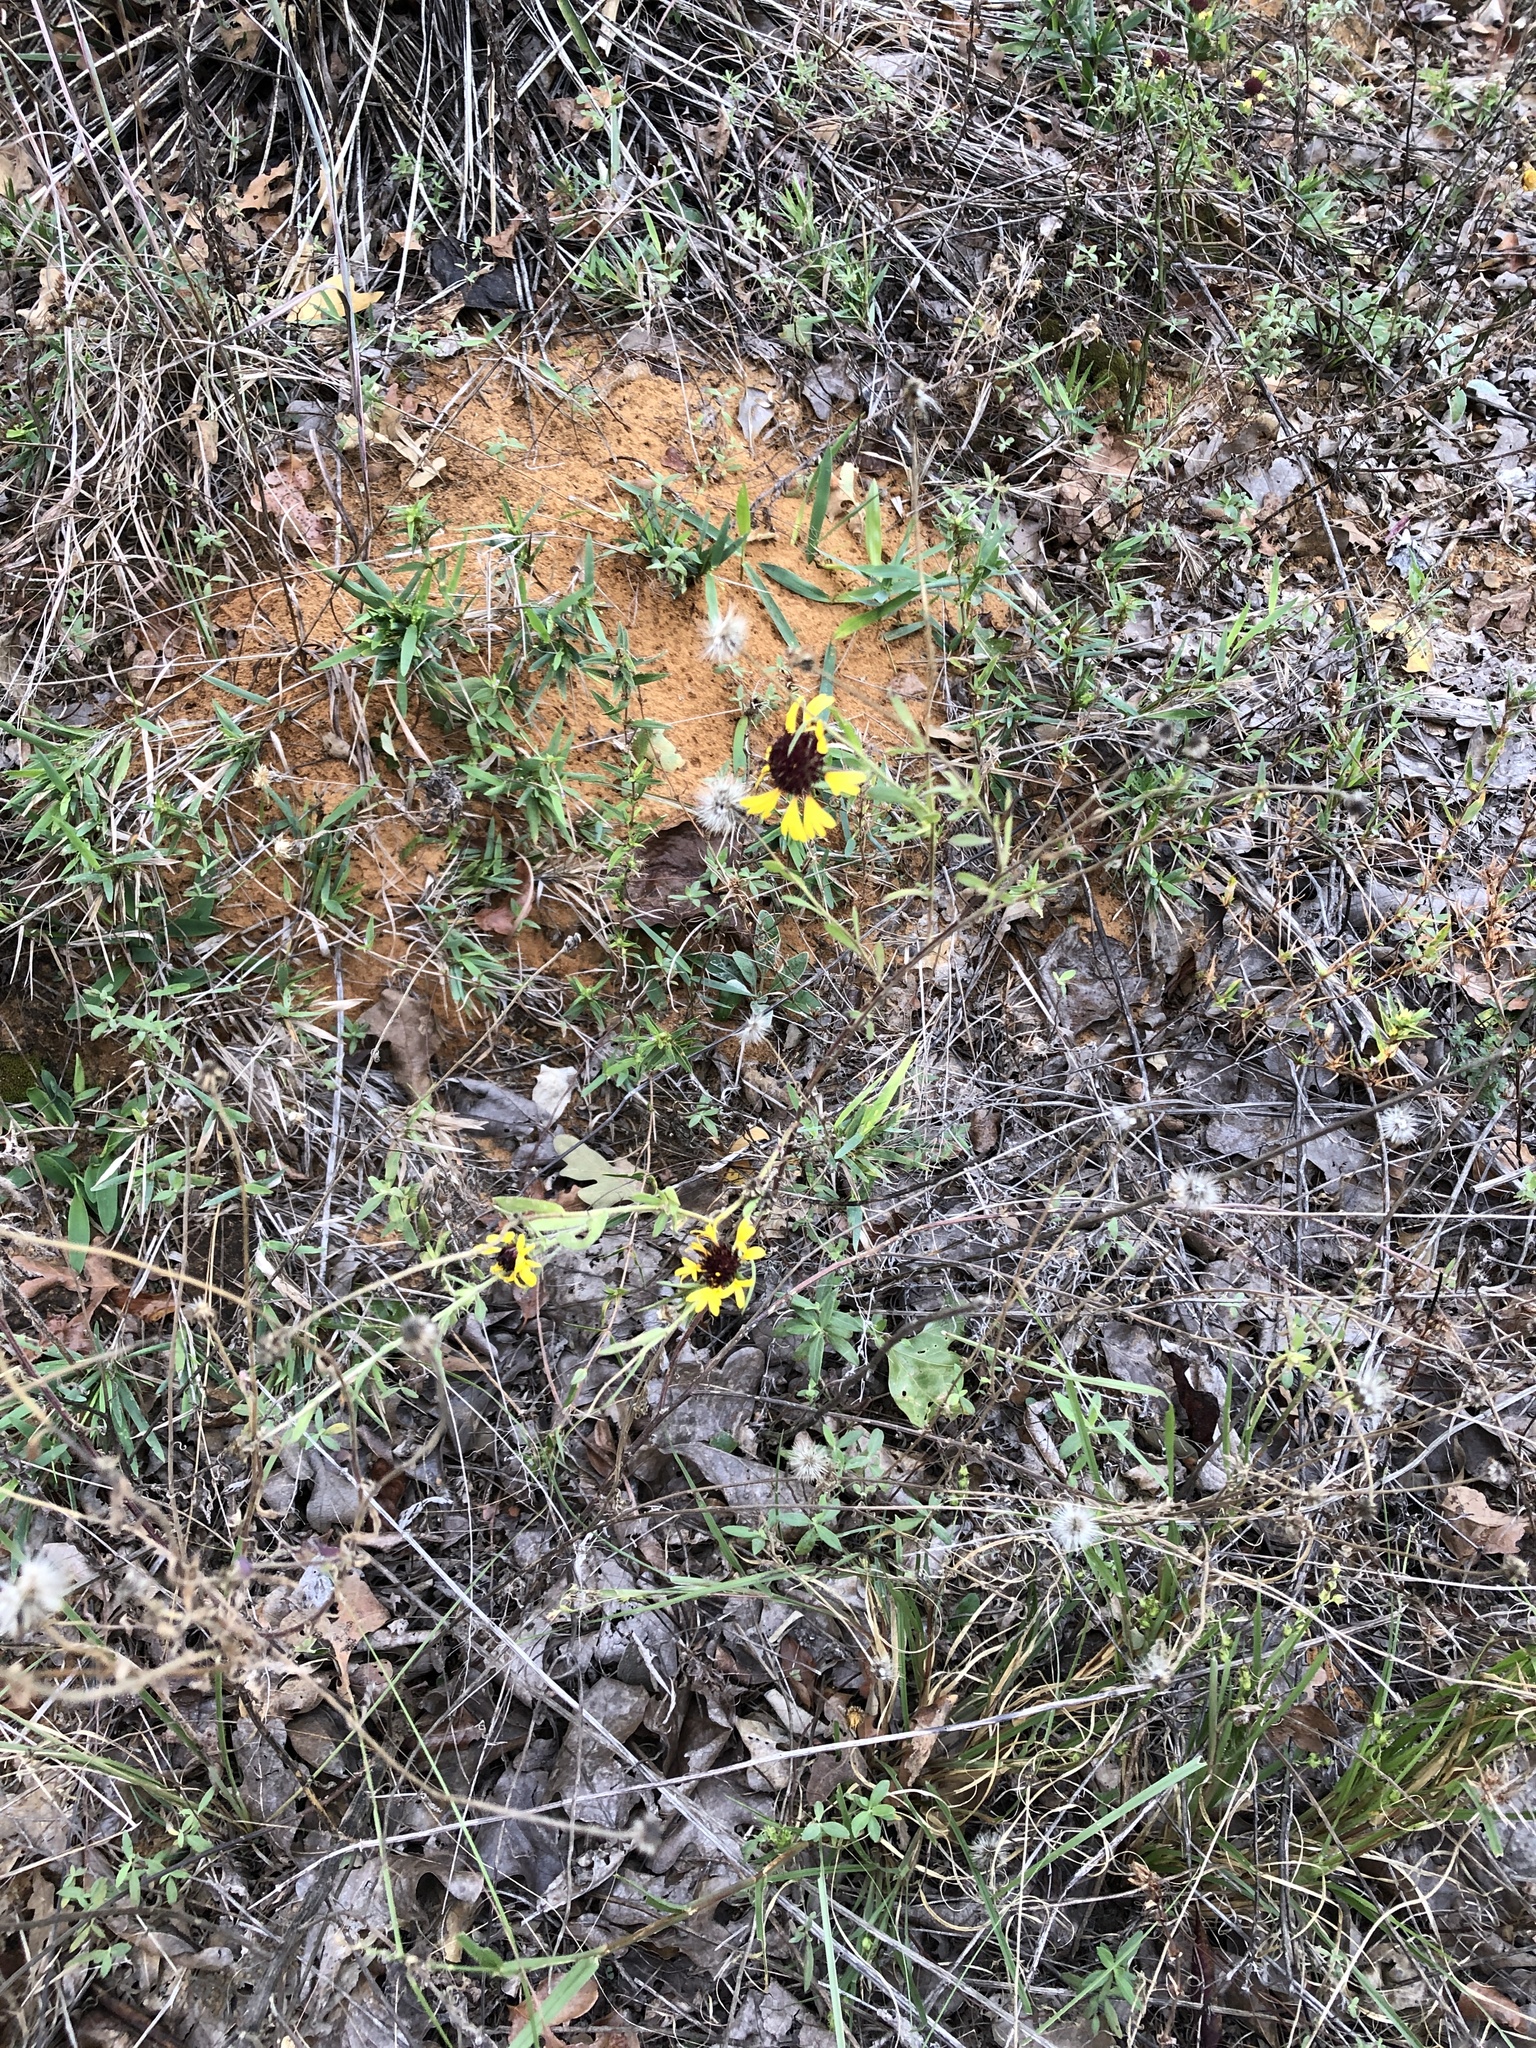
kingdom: Plantae
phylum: Tracheophyta
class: Magnoliopsida
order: Asterales
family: Asteraceae
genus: Gaillardia
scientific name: Gaillardia aestivalis
